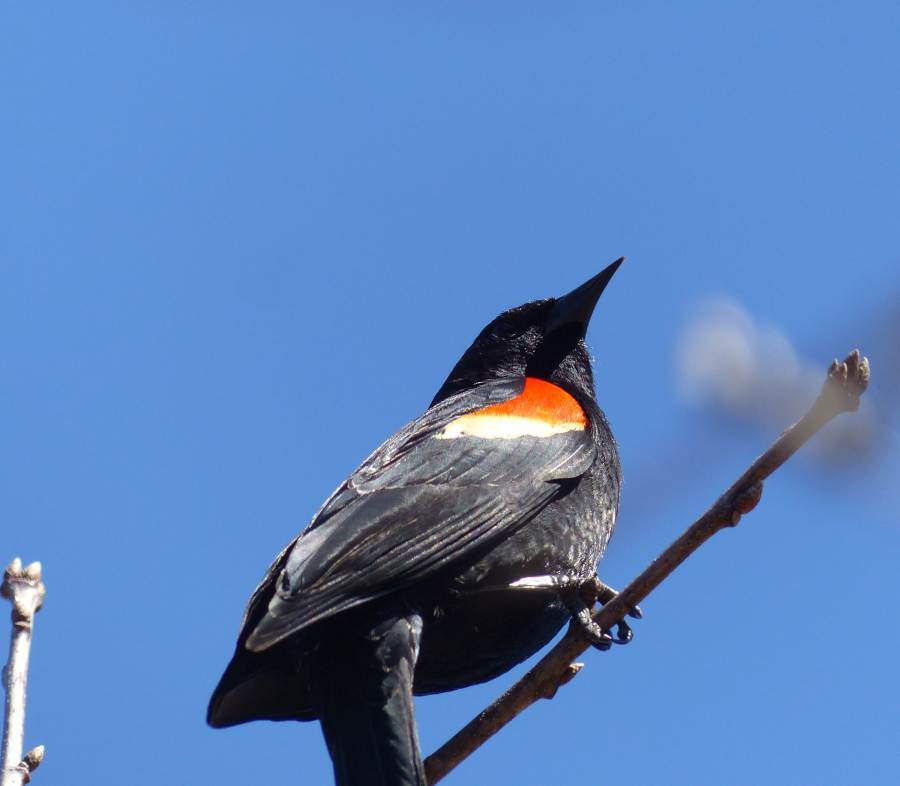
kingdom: Animalia
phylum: Chordata
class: Aves
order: Passeriformes
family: Icteridae
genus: Agelaius
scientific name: Agelaius phoeniceus
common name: Red-winged blackbird
